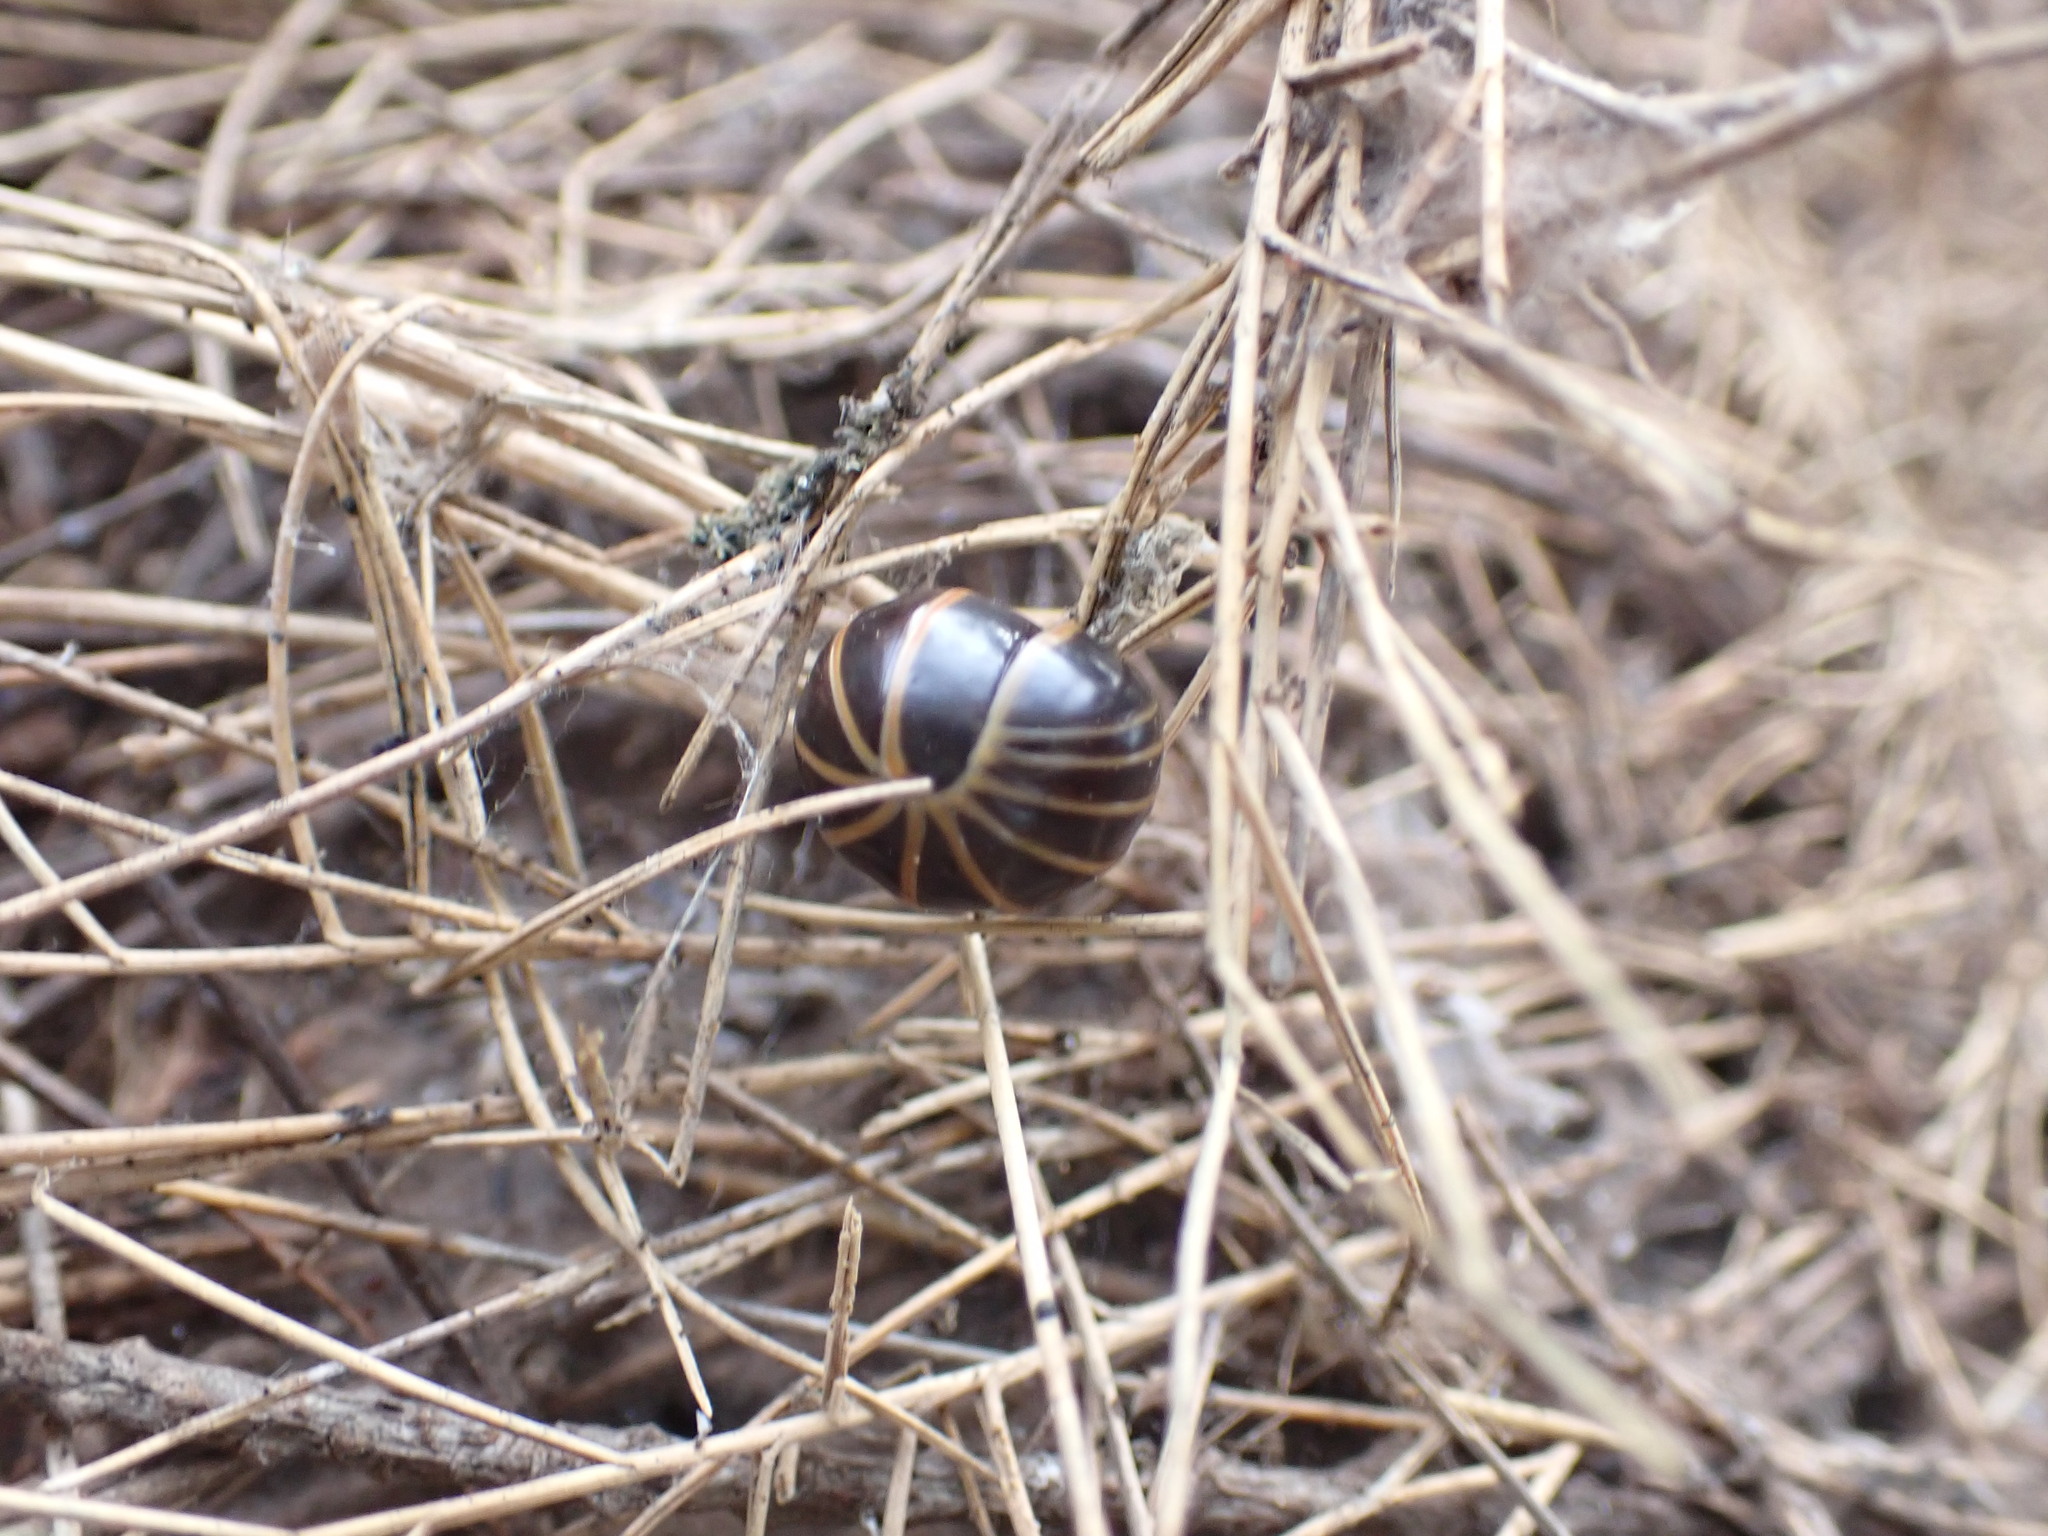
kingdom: Animalia
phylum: Arthropoda
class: Diplopoda
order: Glomerida
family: Glomeridae
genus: Glomeris
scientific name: Glomeris marginata
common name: Bordered pill millipede
